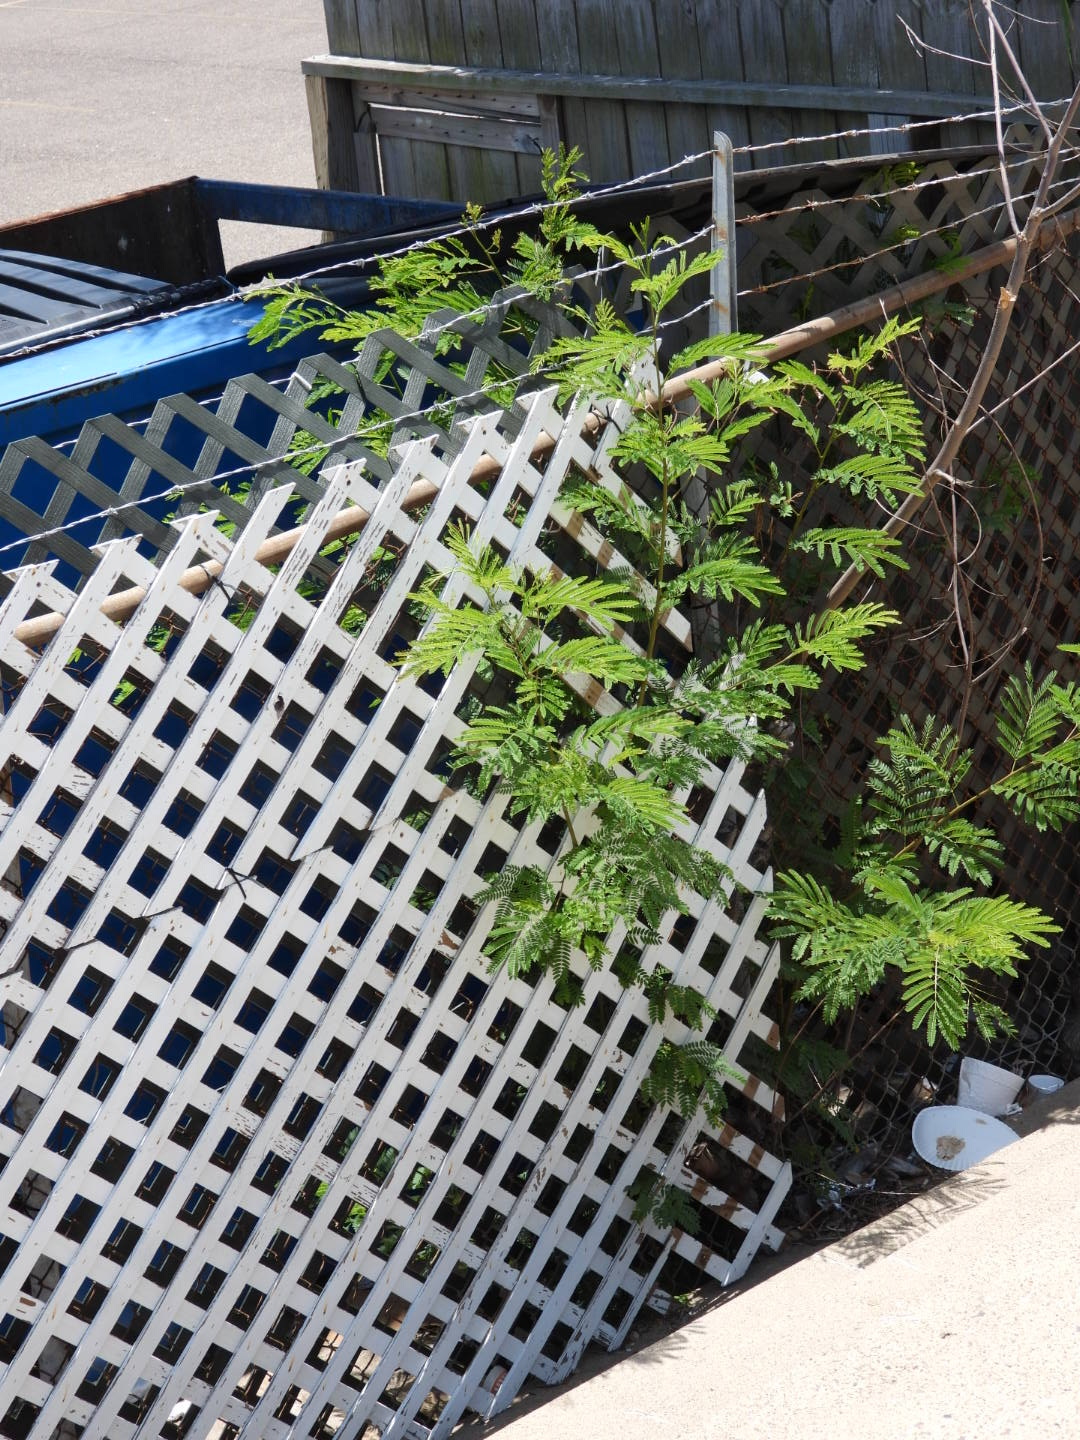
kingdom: Plantae
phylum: Tracheophyta
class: Magnoliopsida
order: Fabales
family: Fabaceae
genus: Leucaena
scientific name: Leucaena leucocephala
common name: White leadtree
